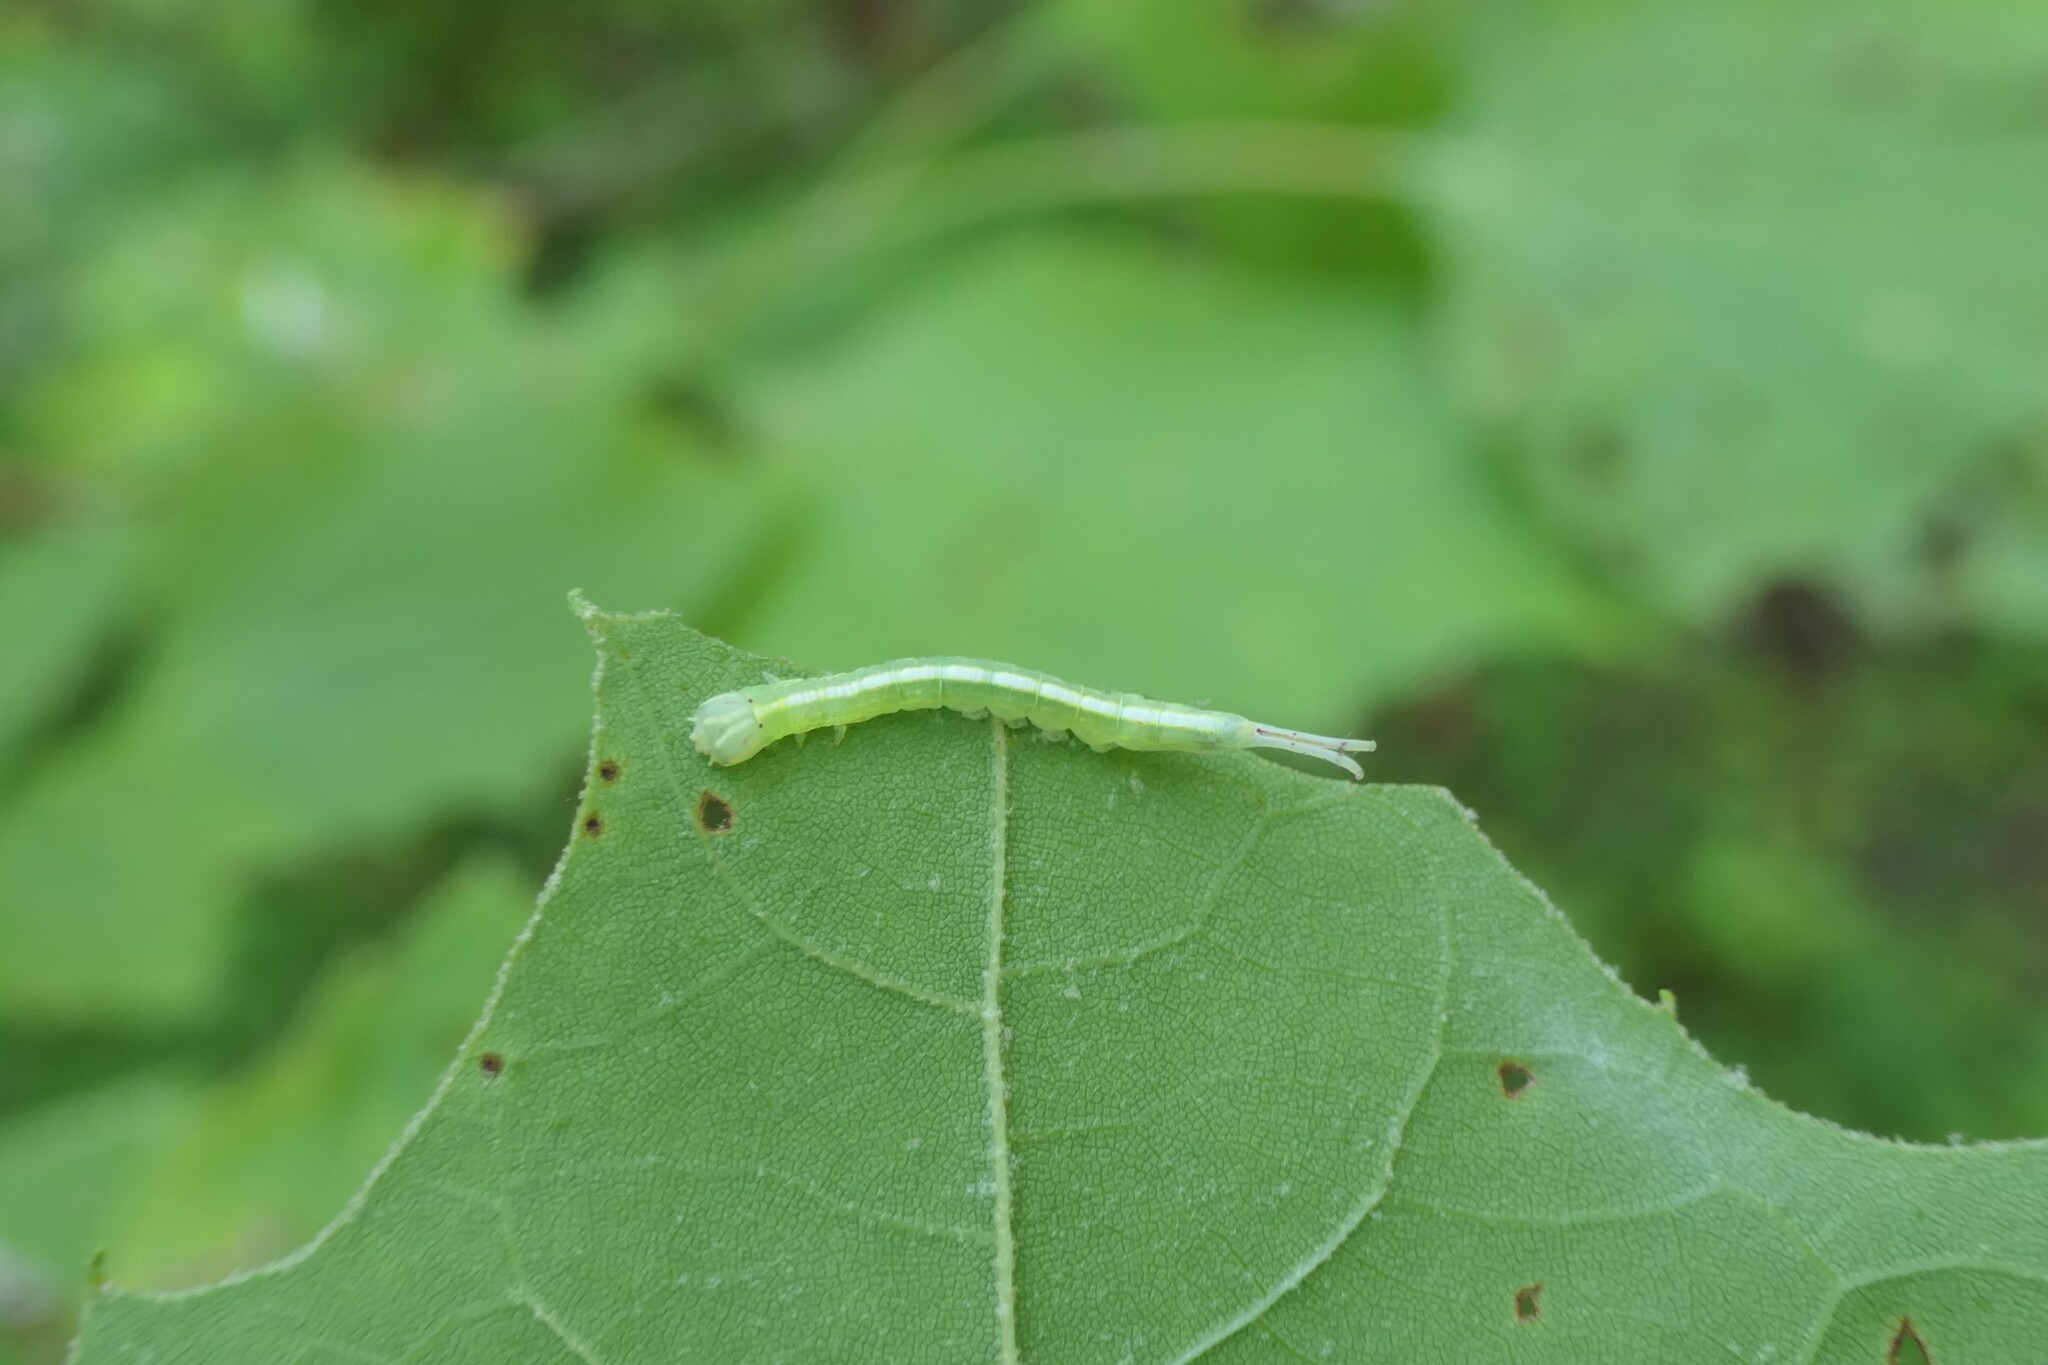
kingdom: Animalia
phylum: Arthropoda
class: Insecta
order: Lepidoptera
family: Notodontidae
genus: Misogada
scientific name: Misogada unicolor
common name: Drab prominent
